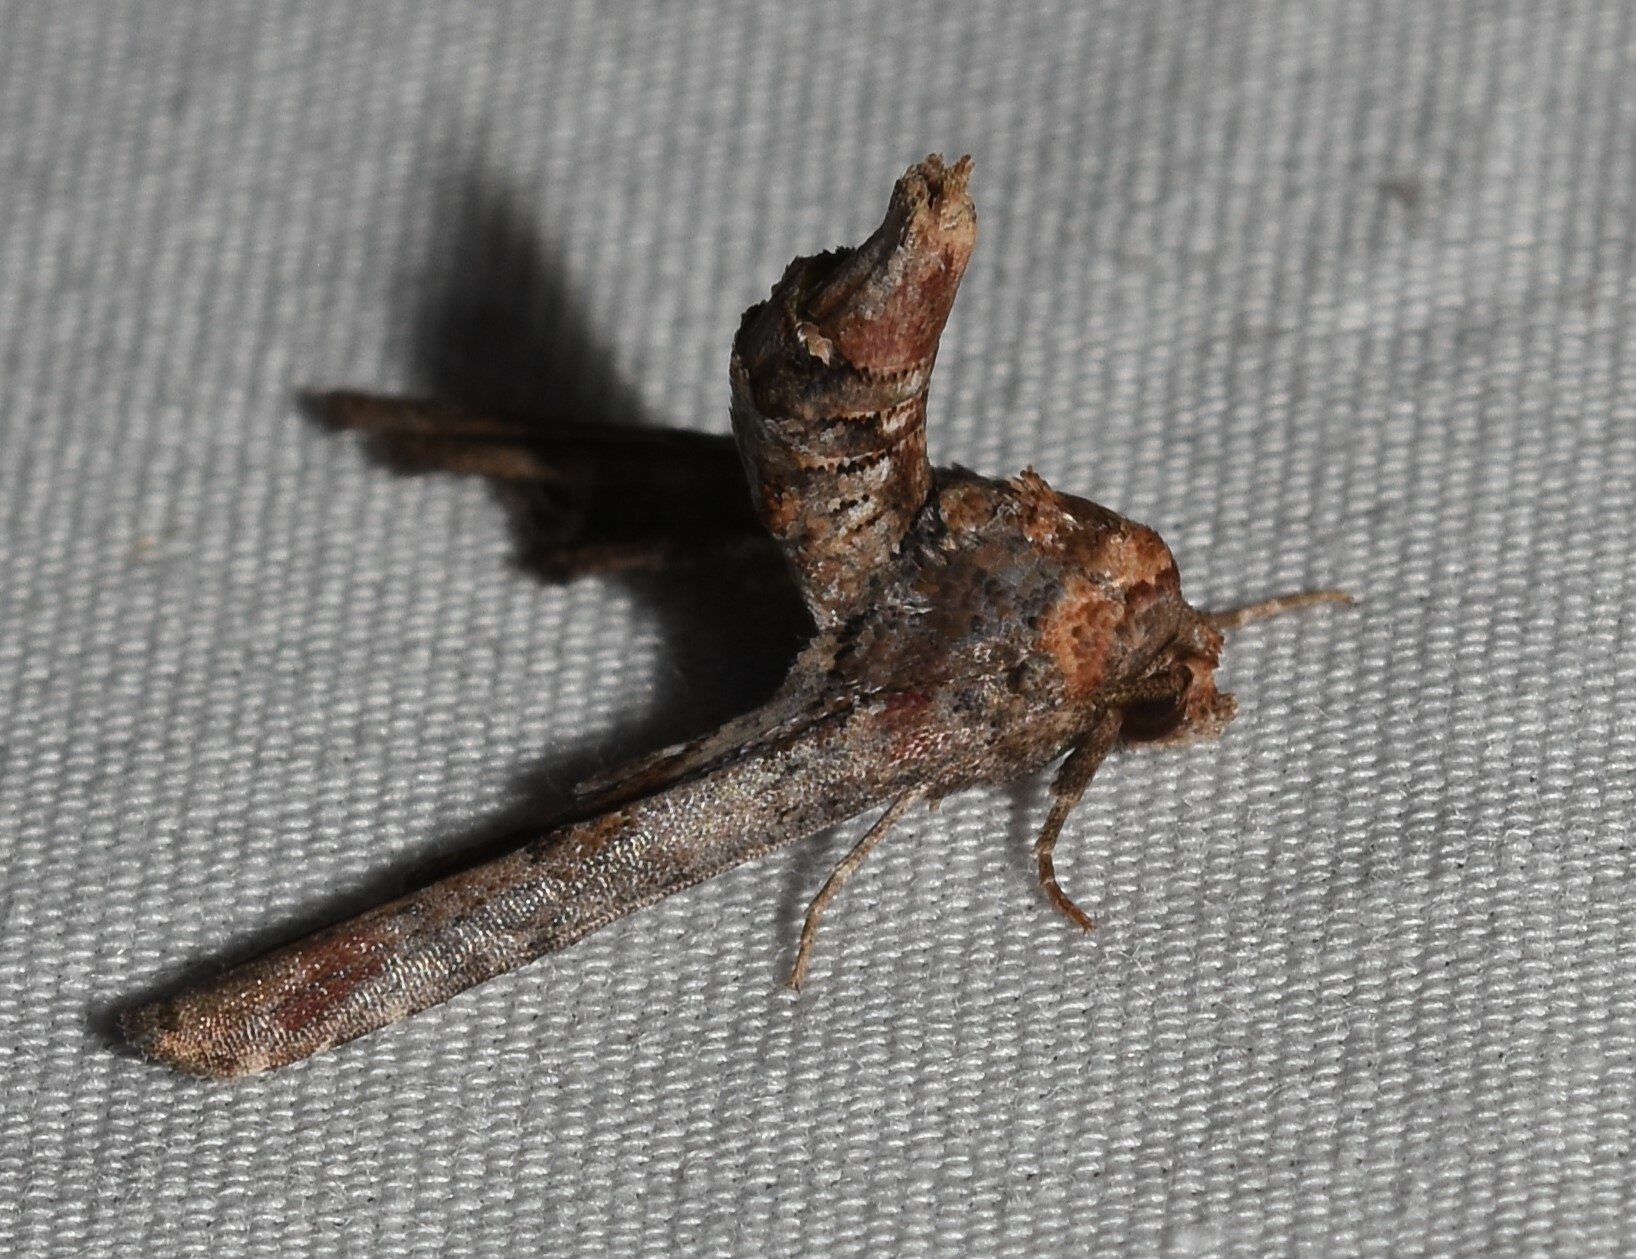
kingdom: Animalia
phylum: Arthropoda
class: Insecta
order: Lepidoptera
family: Euteliidae
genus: Marathyssa
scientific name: Marathyssa inficita
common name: Dark marathyssa moth
